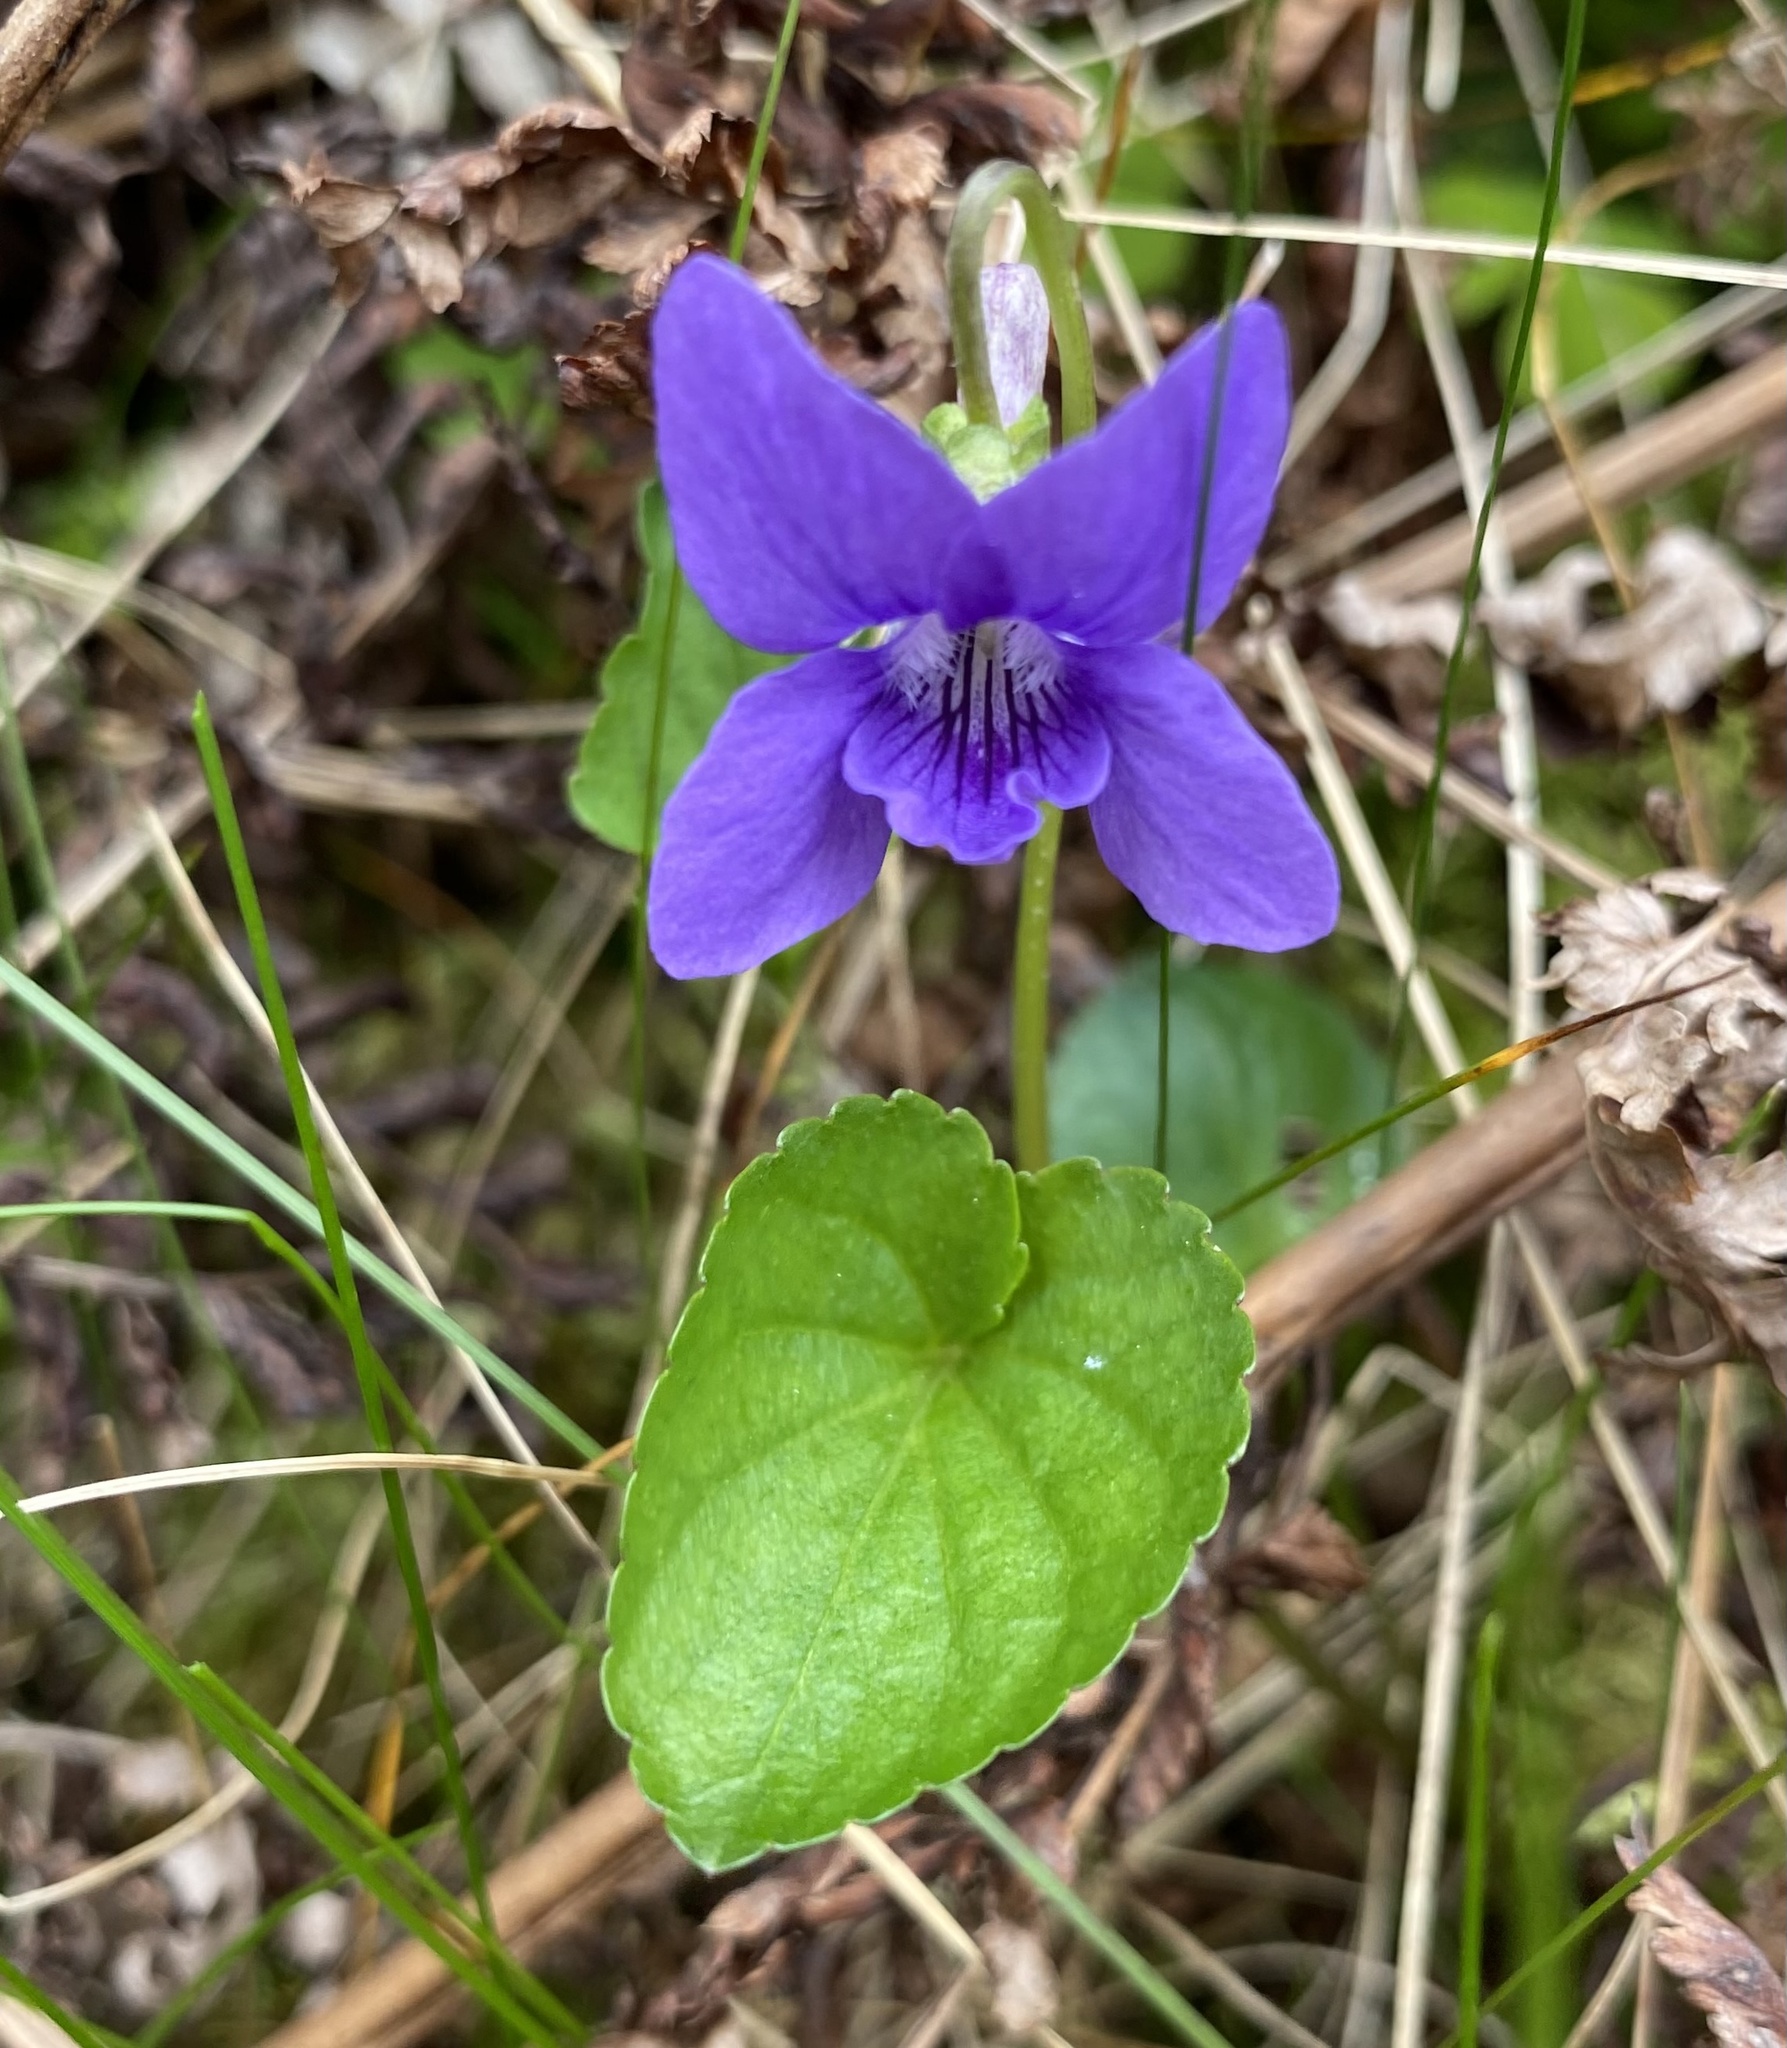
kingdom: Plantae
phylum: Tracheophyta
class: Magnoliopsida
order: Malpighiales
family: Violaceae
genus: Viola
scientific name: Viola riviniana
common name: Common dog-violet
